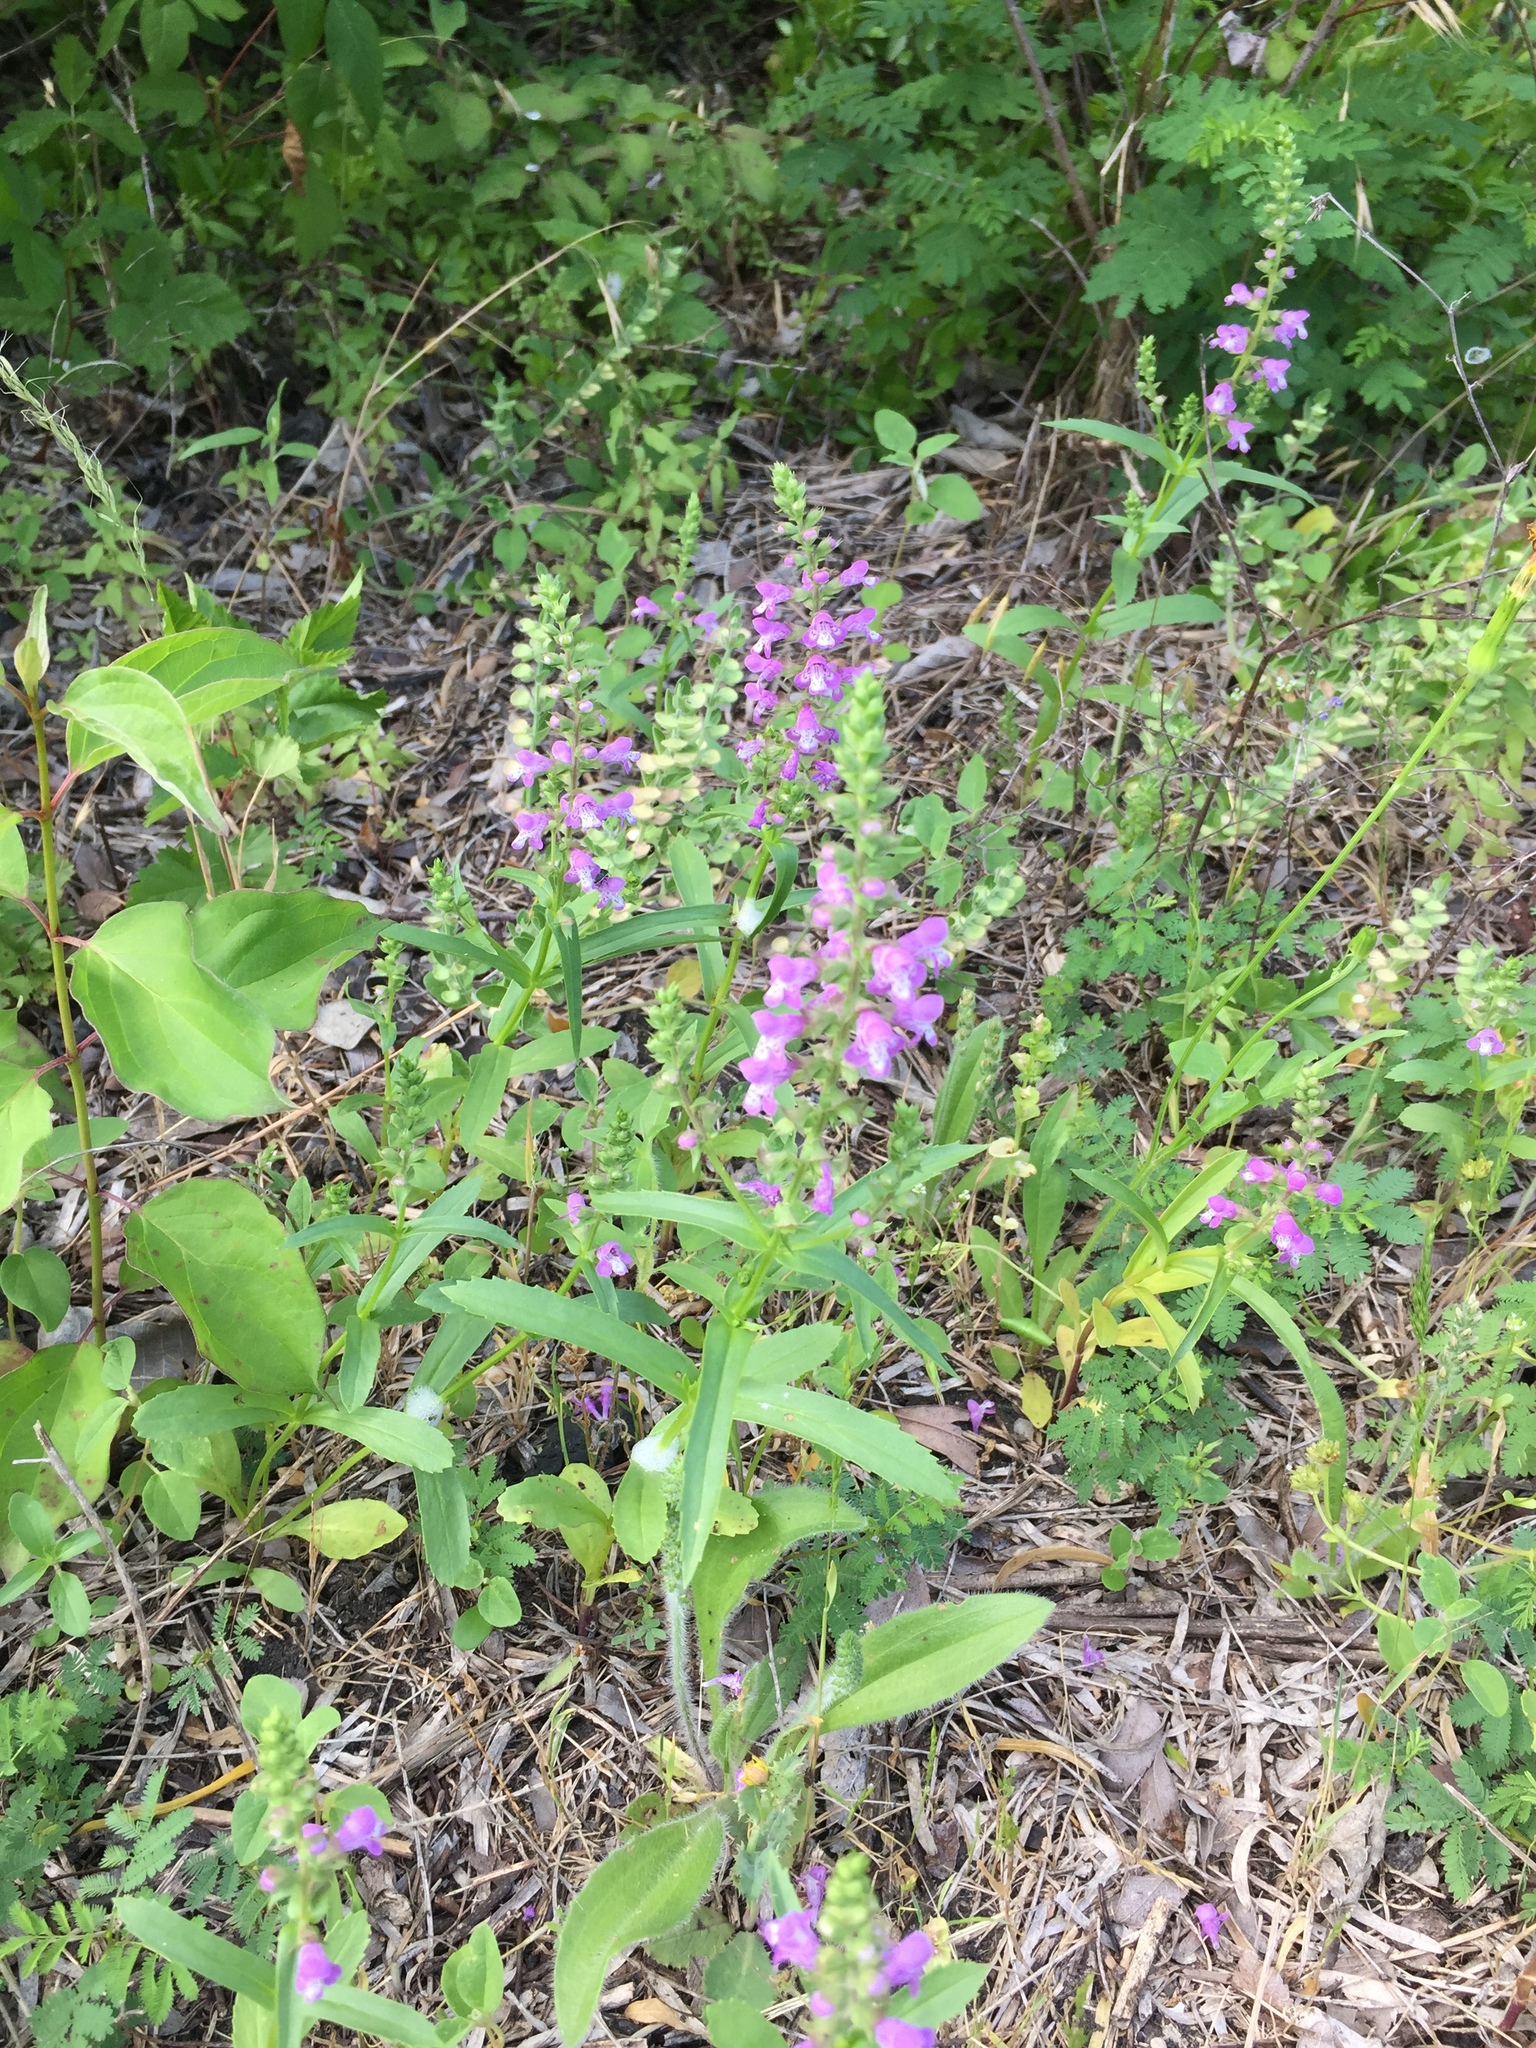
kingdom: Plantae
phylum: Tracheophyta
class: Magnoliopsida
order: Lamiales
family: Lamiaceae
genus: Warnockia
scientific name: Warnockia scutellarioides
